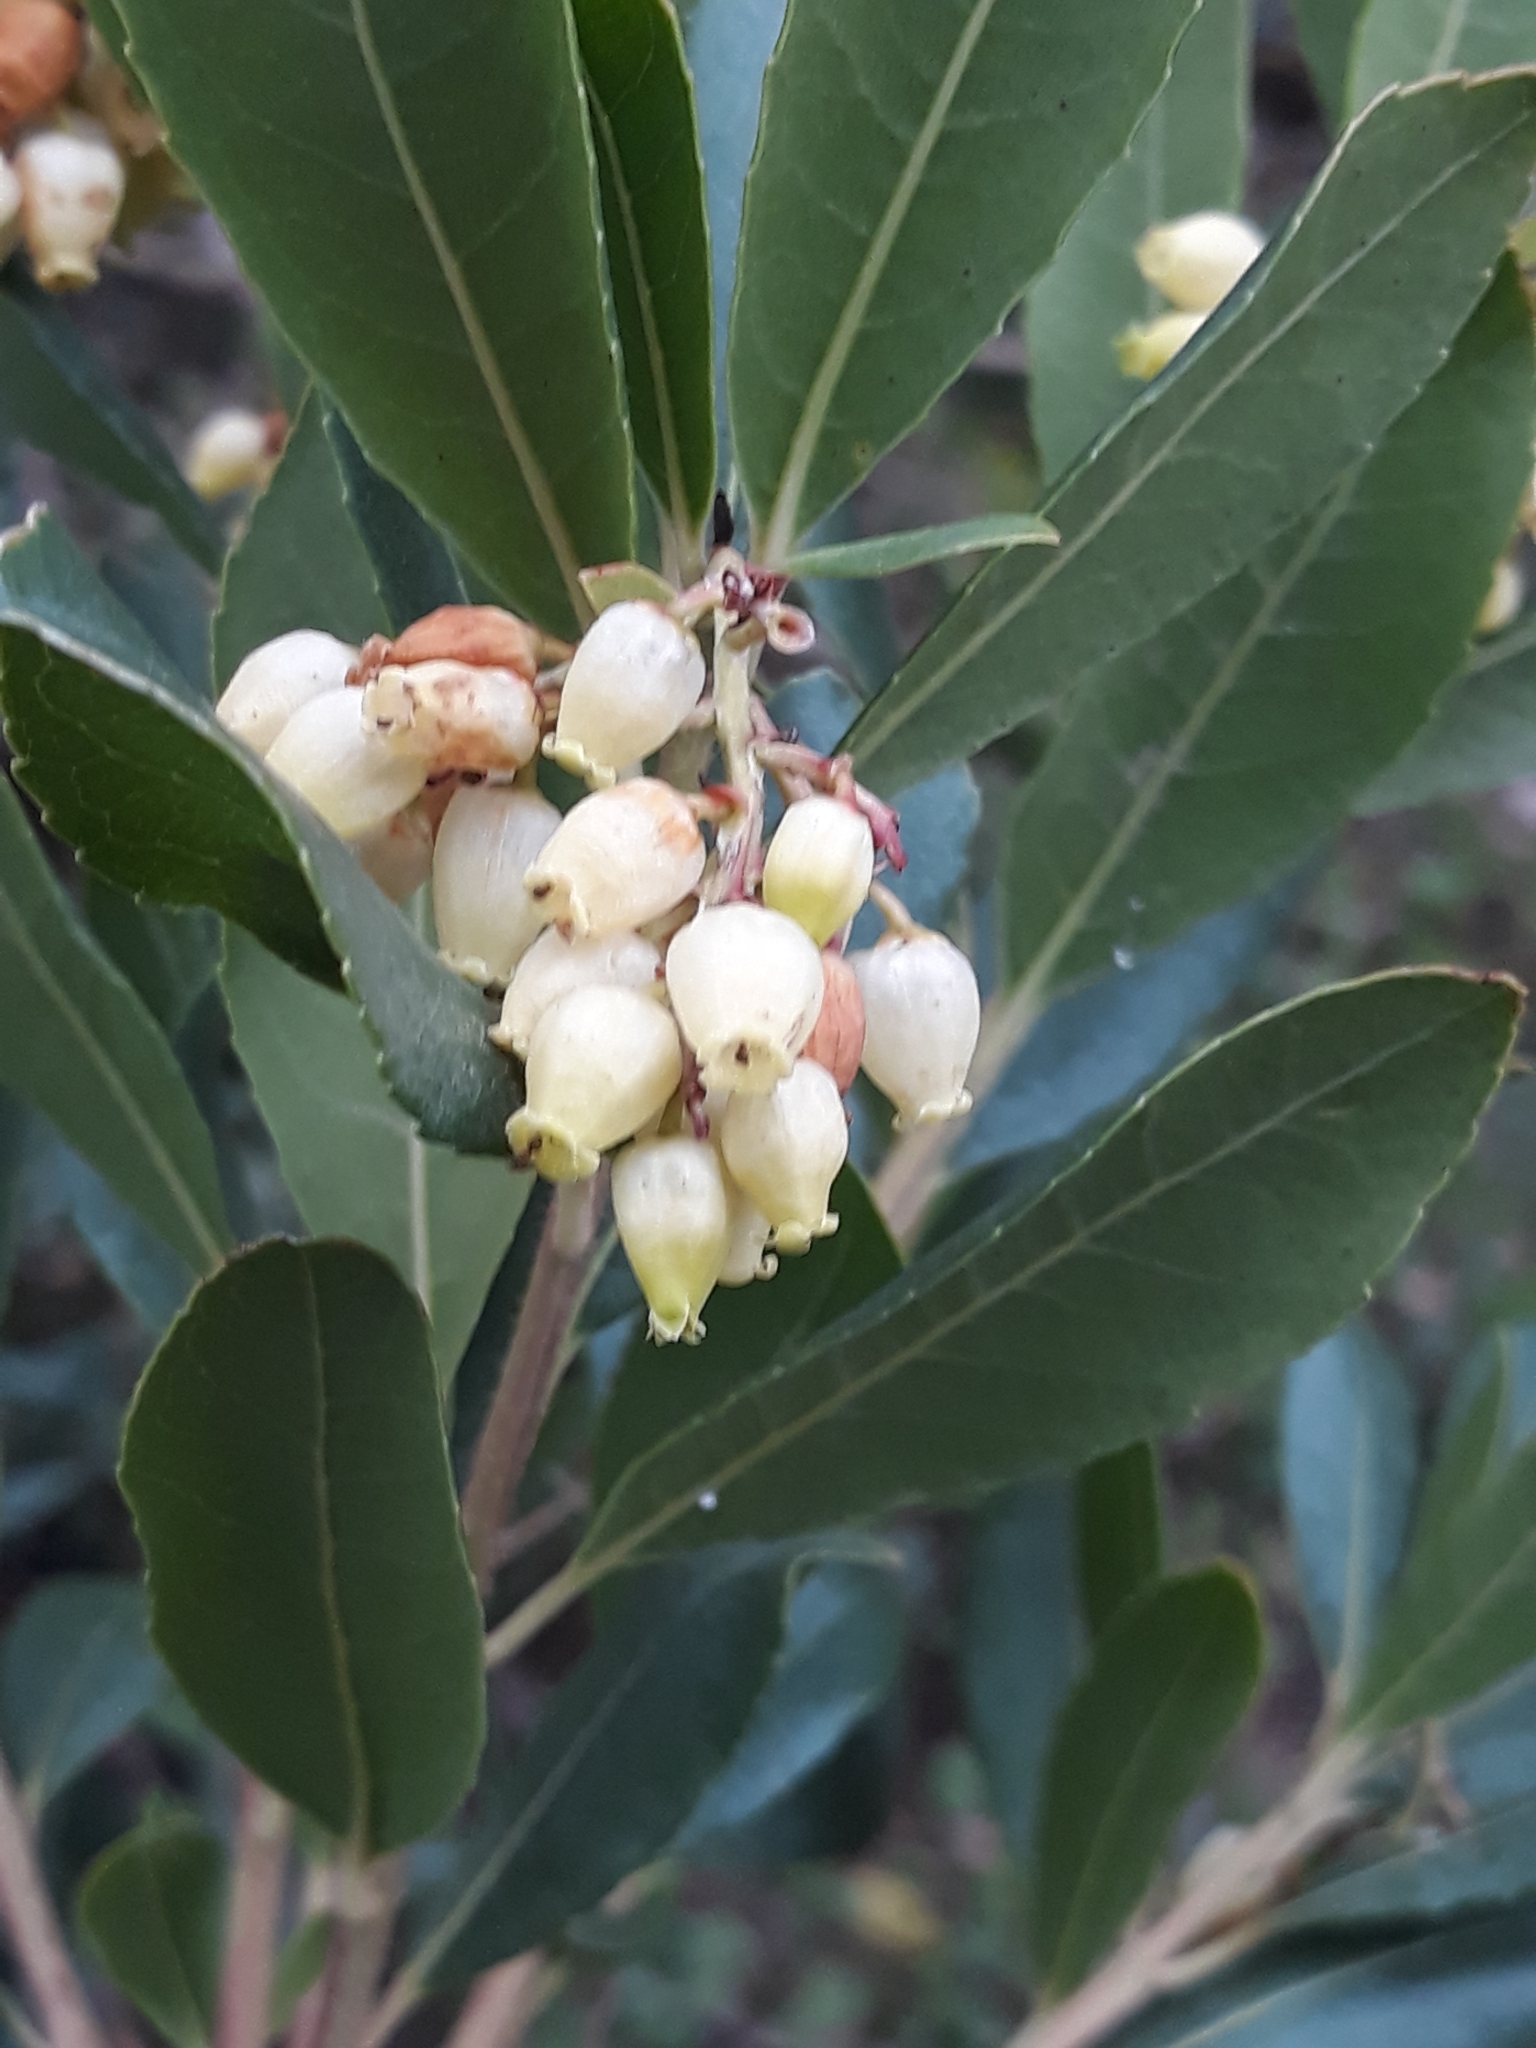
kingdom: Plantae
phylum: Tracheophyta
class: Magnoliopsida
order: Ericales
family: Ericaceae
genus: Arbutus
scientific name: Arbutus unedo
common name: Strawberry-tree
